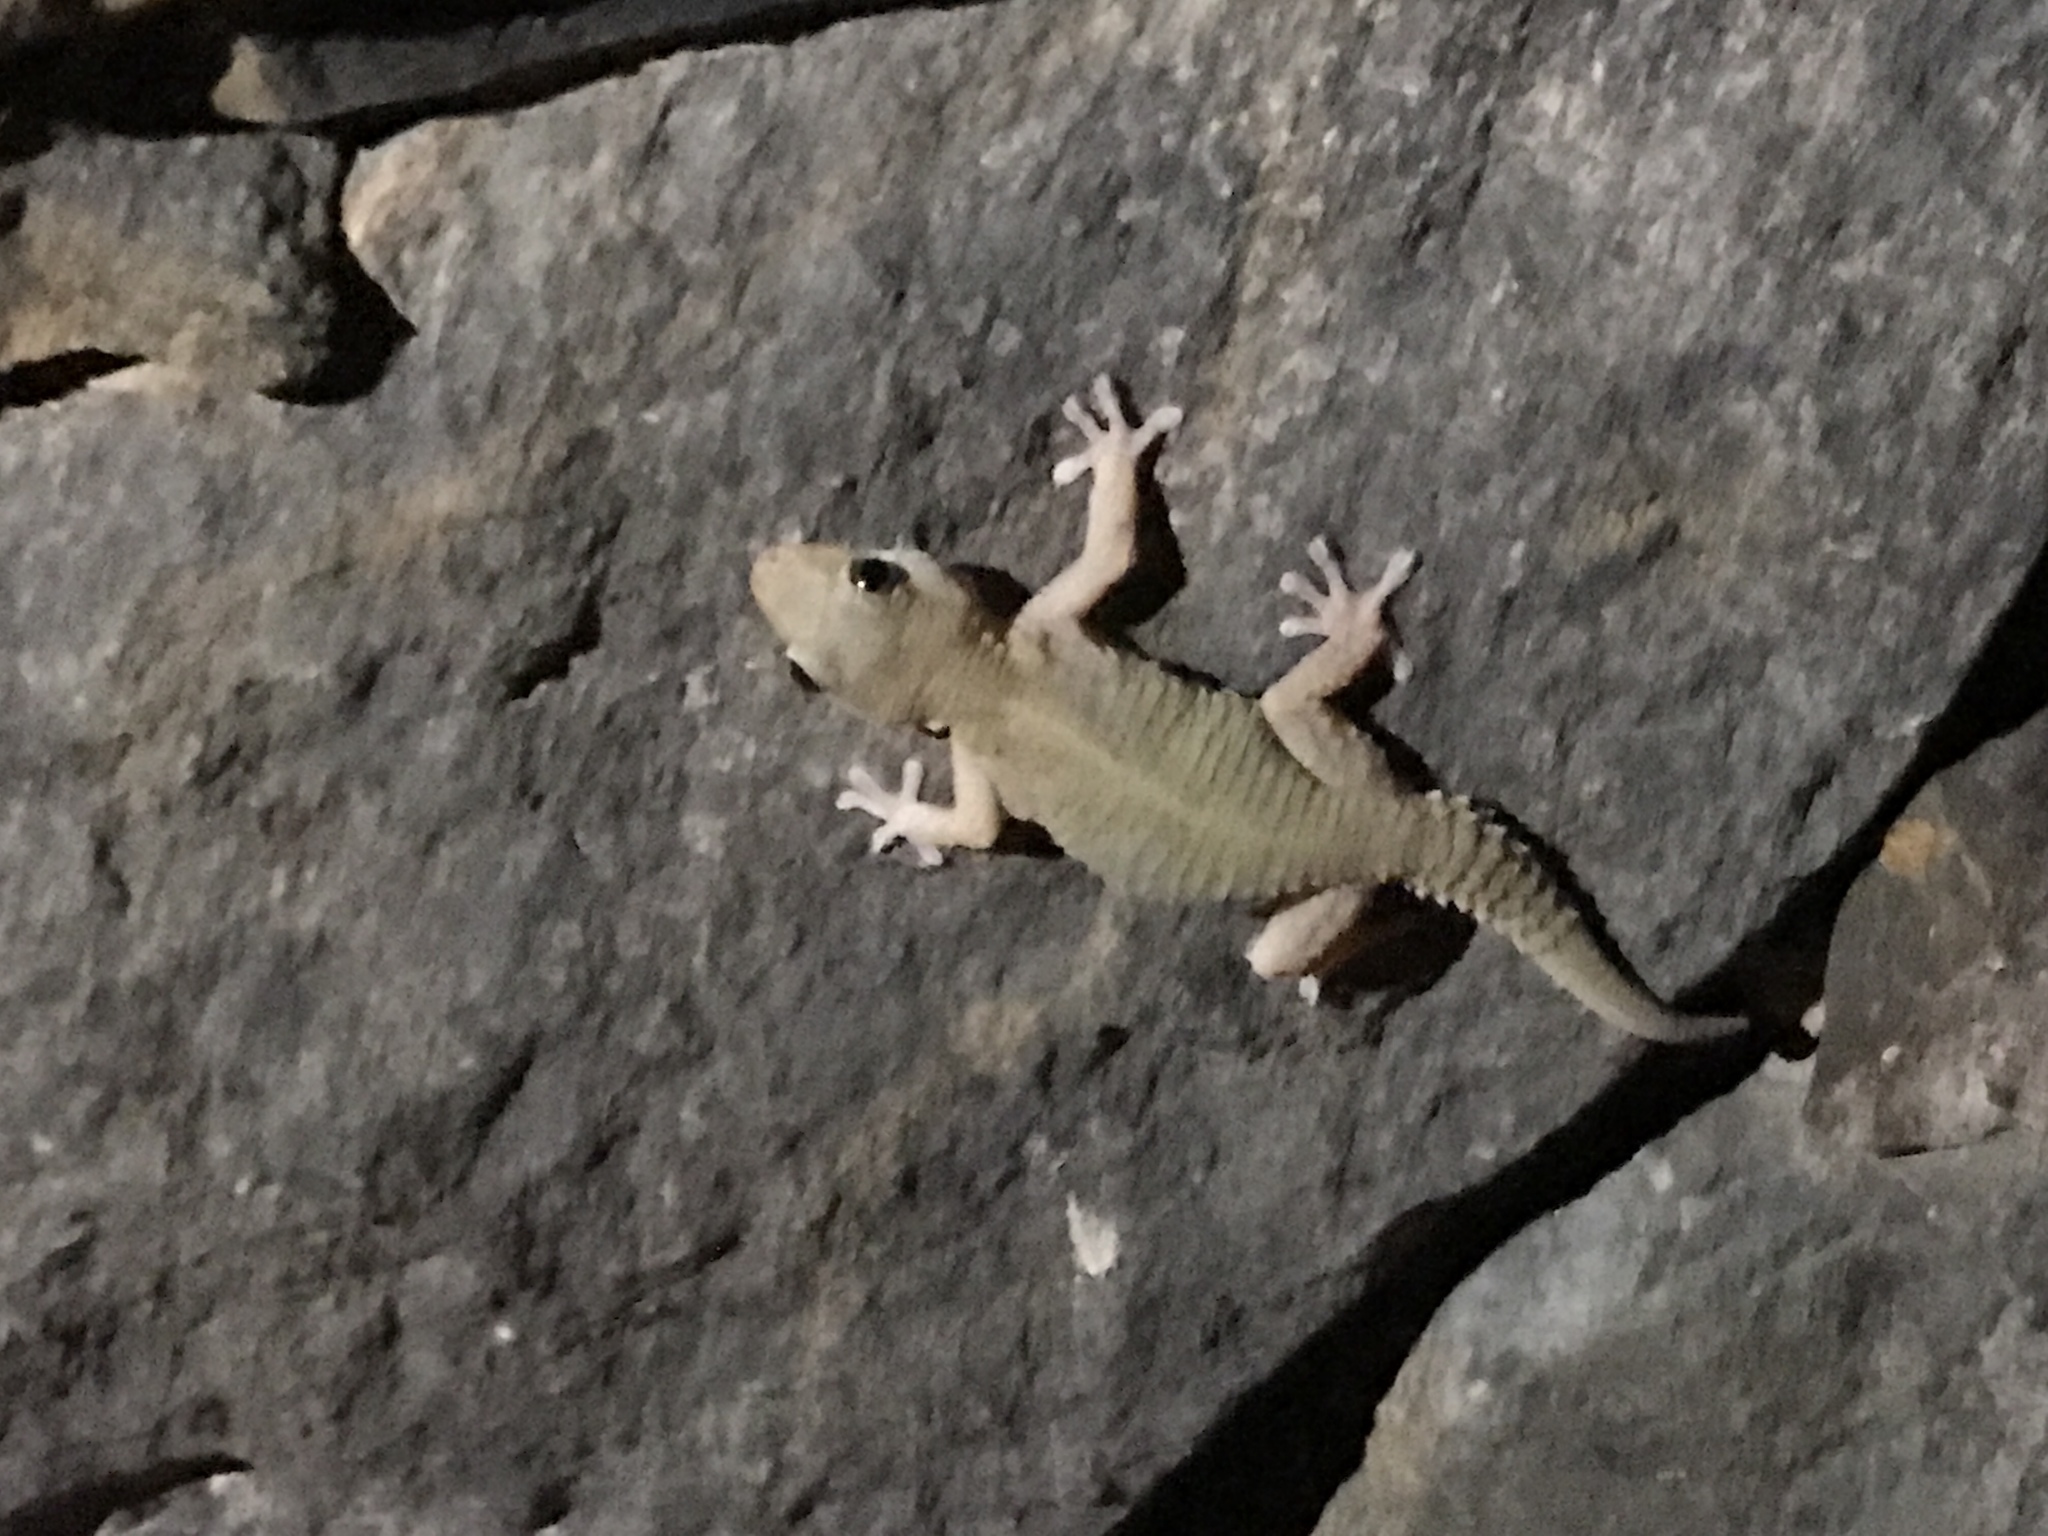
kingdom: Animalia
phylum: Chordata
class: Squamata
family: Phyllodactylidae
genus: Tarentola
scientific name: Tarentola angustimentalis
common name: East canary gecko
